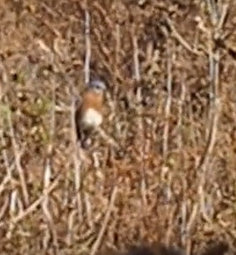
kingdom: Animalia
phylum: Chordata
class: Aves
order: Passeriformes
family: Turdidae
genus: Sialia
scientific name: Sialia sialis
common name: Eastern bluebird
